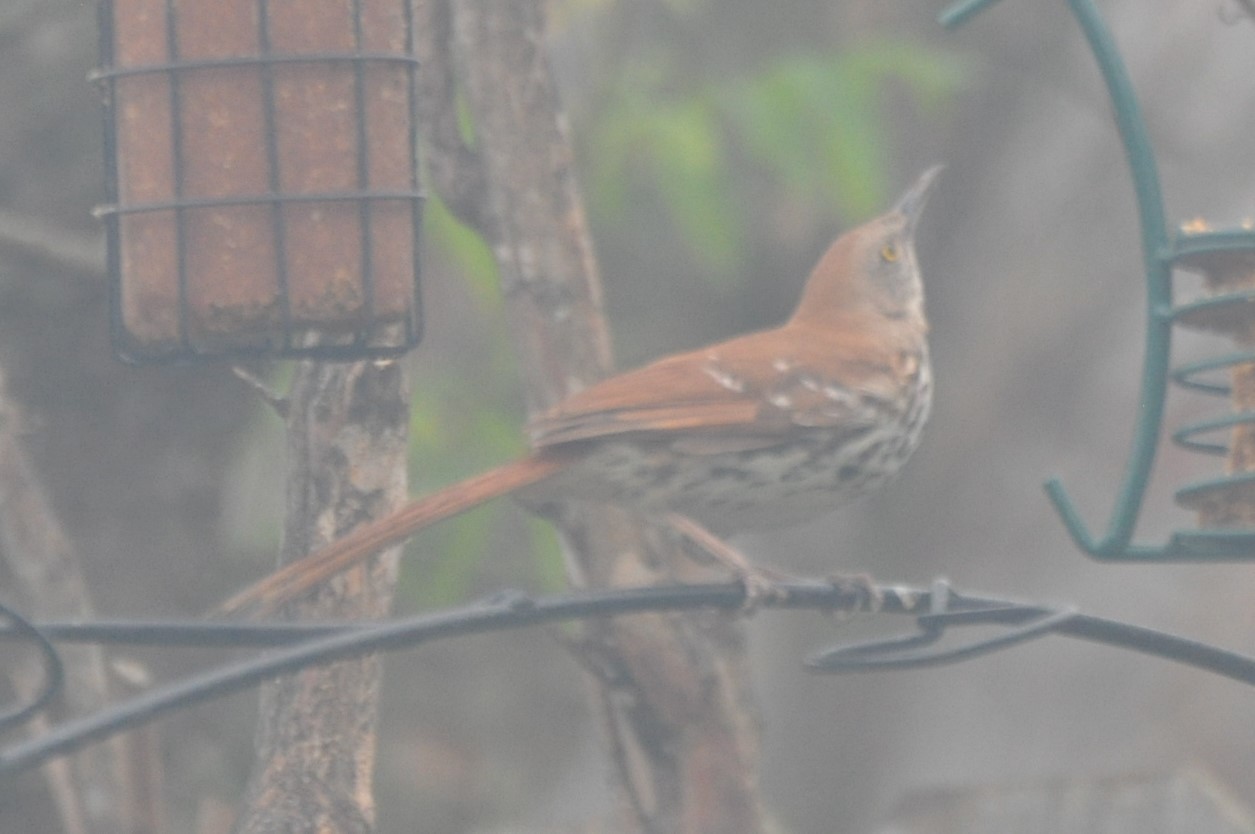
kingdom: Animalia
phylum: Chordata
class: Aves
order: Passeriformes
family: Mimidae
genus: Toxostoma
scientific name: Toxostoma rufum
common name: Brown thrasher
